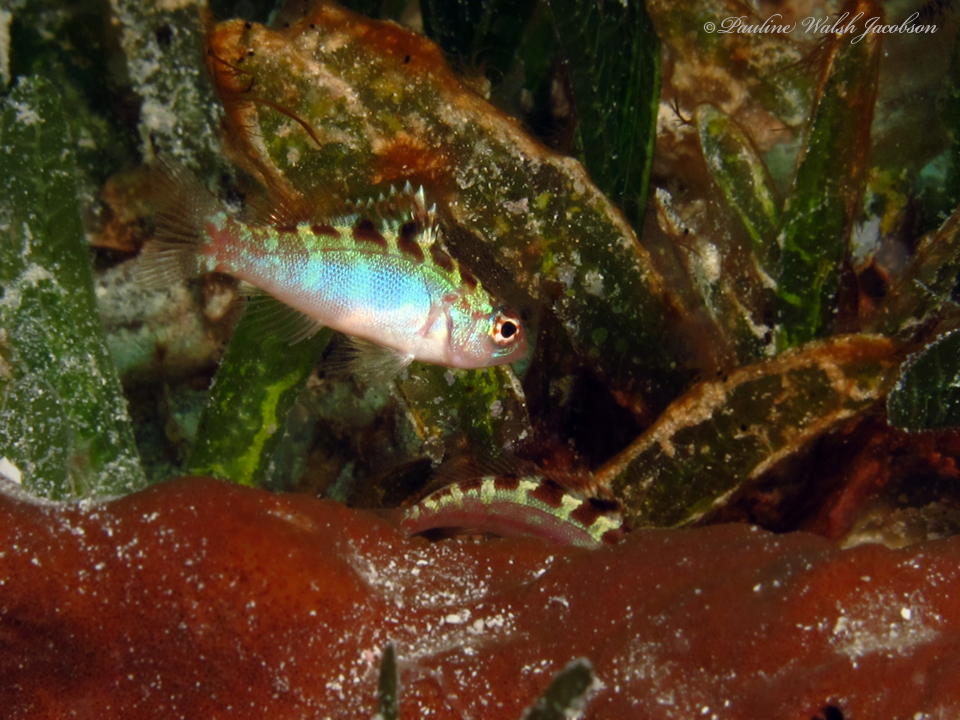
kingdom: Animalia
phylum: Chordata
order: Perciformes
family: Serranidae
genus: Serranus
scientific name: Serranus tortugarum
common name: Chalk bass
